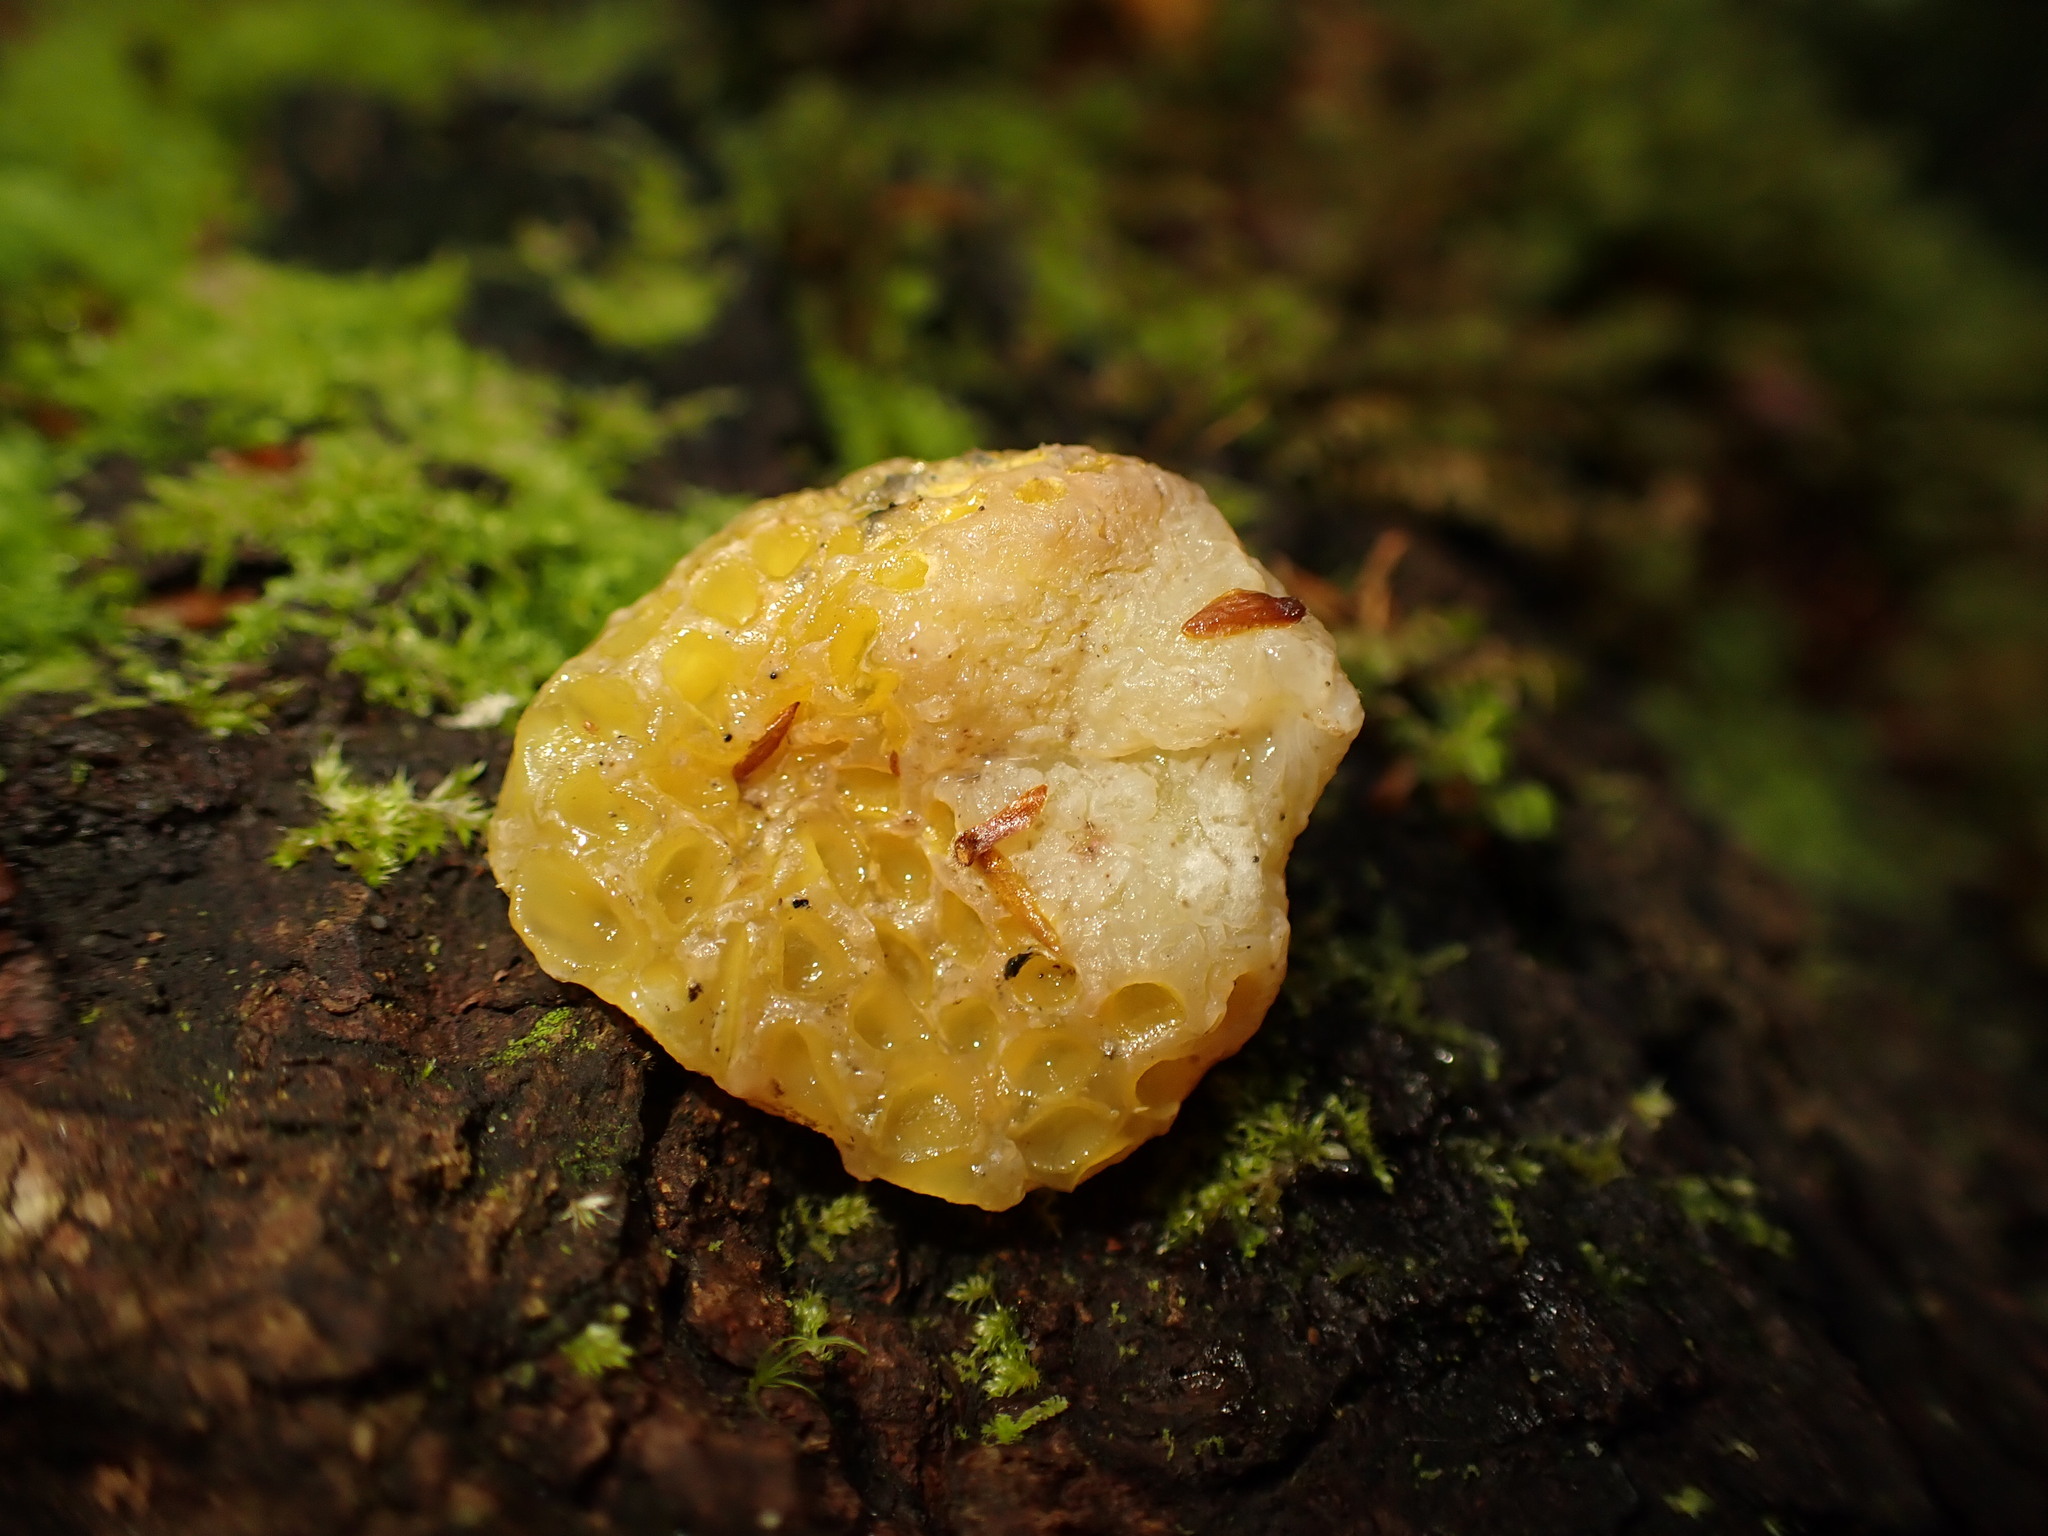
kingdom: Fungi
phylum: Ascomycota
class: Leotiomycetes
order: Cyttariales
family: Cyttariaceae
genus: Cyttaria
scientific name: Cyttaria gunnii
